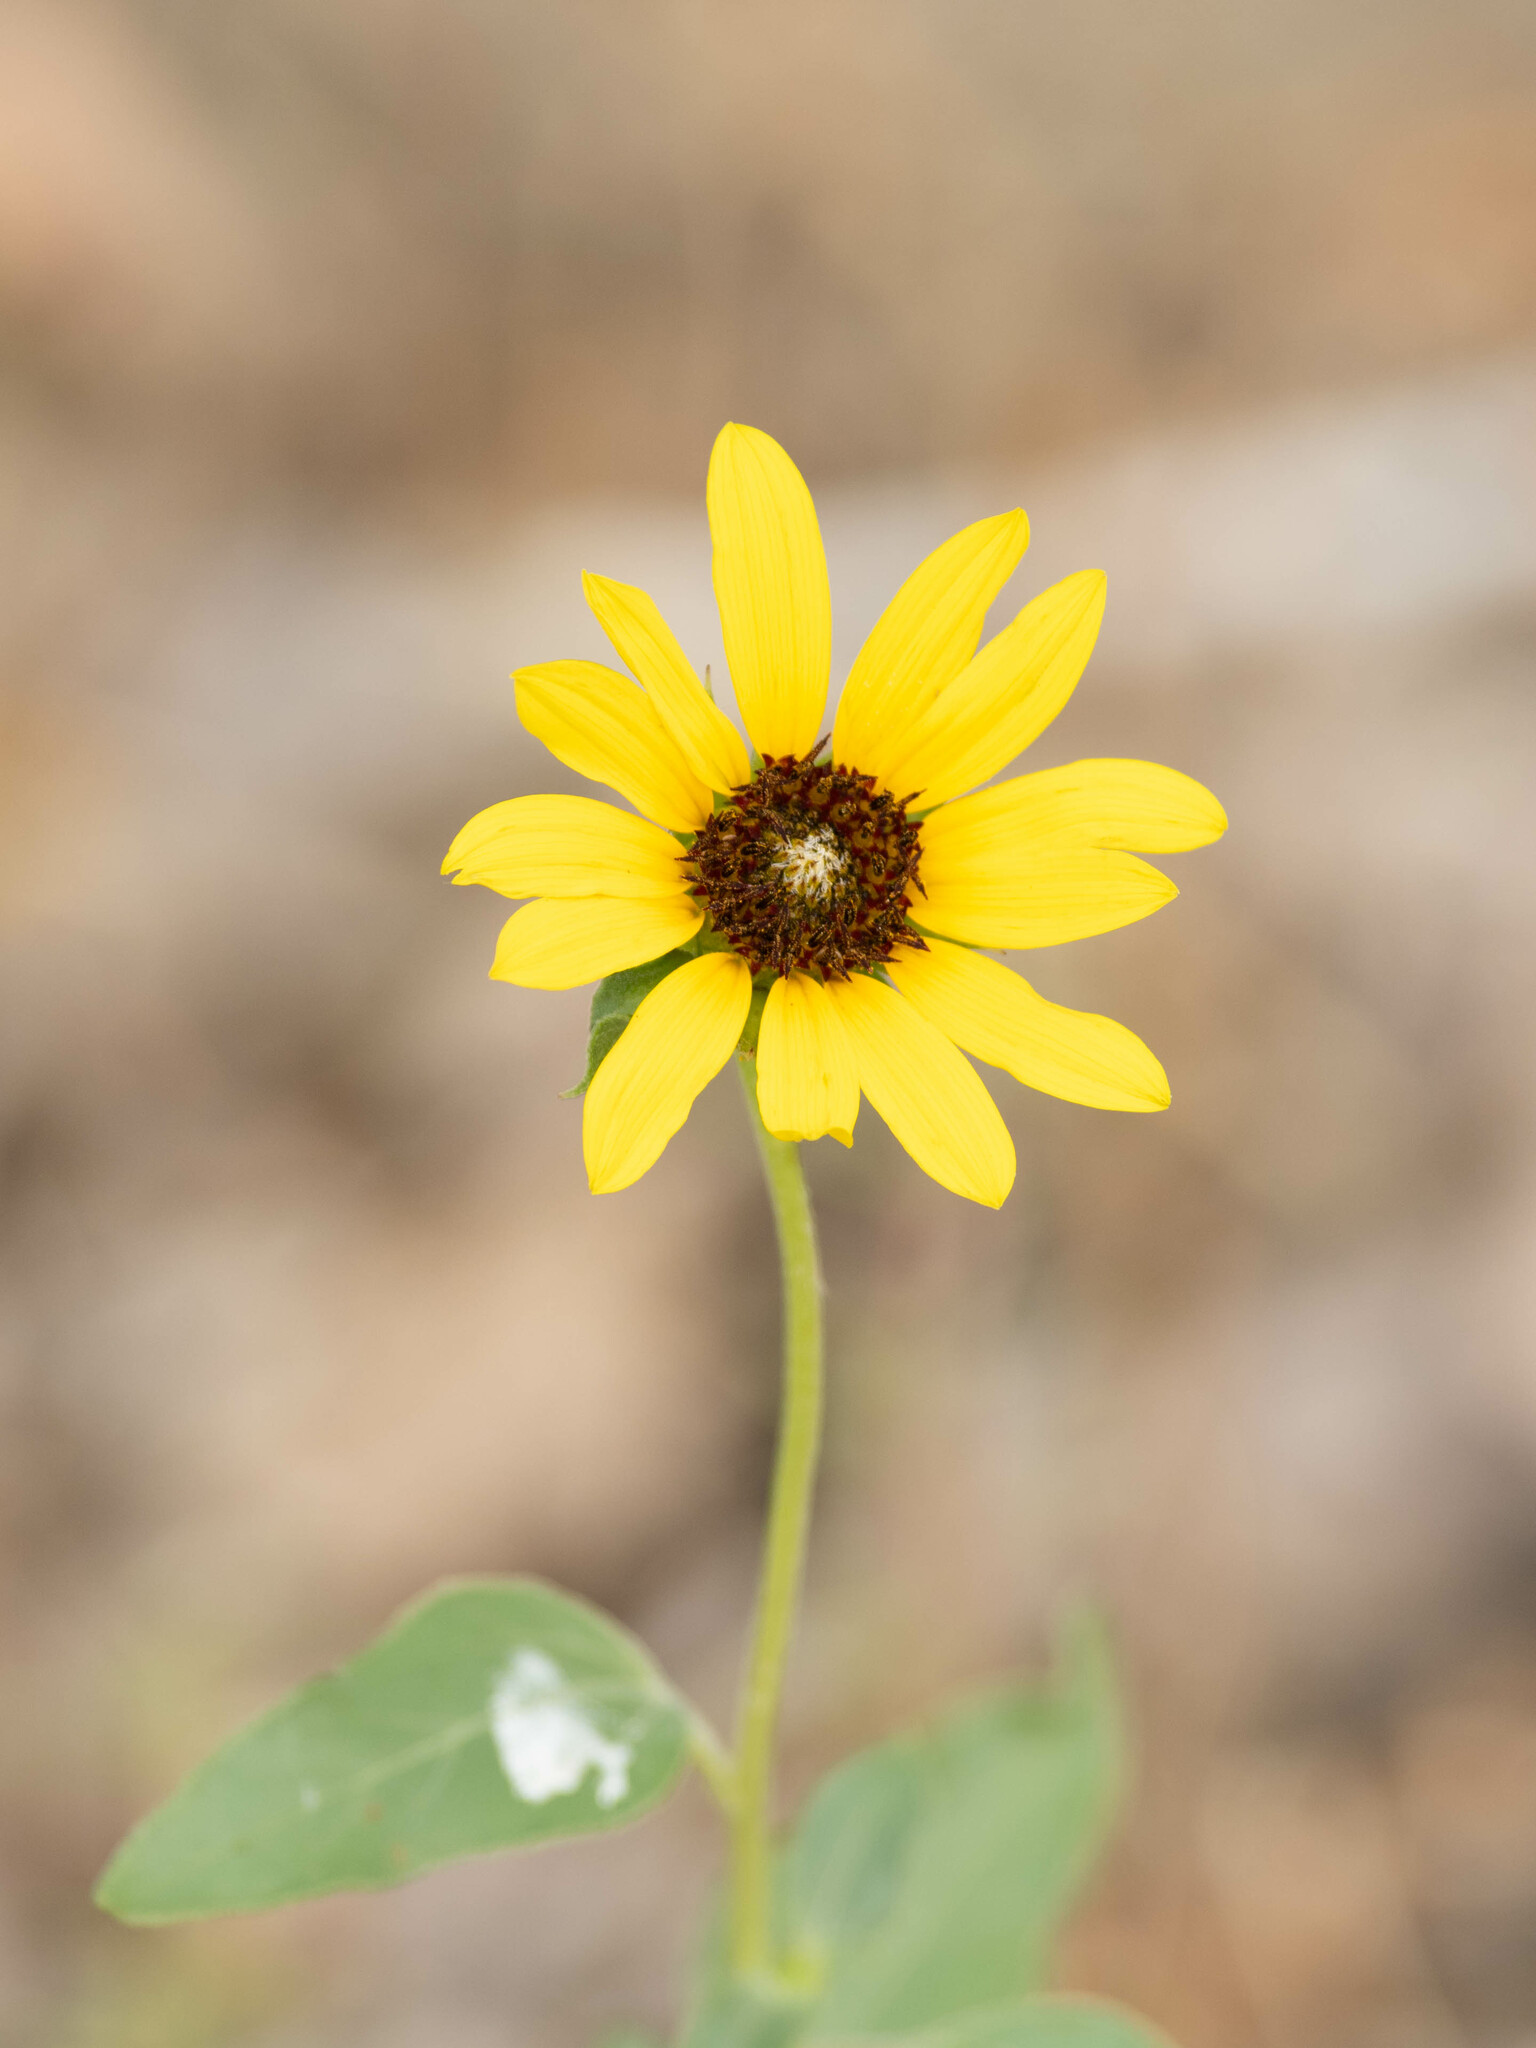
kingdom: Plantae
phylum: Tracheophyta
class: Magnoliopsida
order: Asterales
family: Asteraceae
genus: Helianthus
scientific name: Helianthus petiolaris
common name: Lesser sunflower
